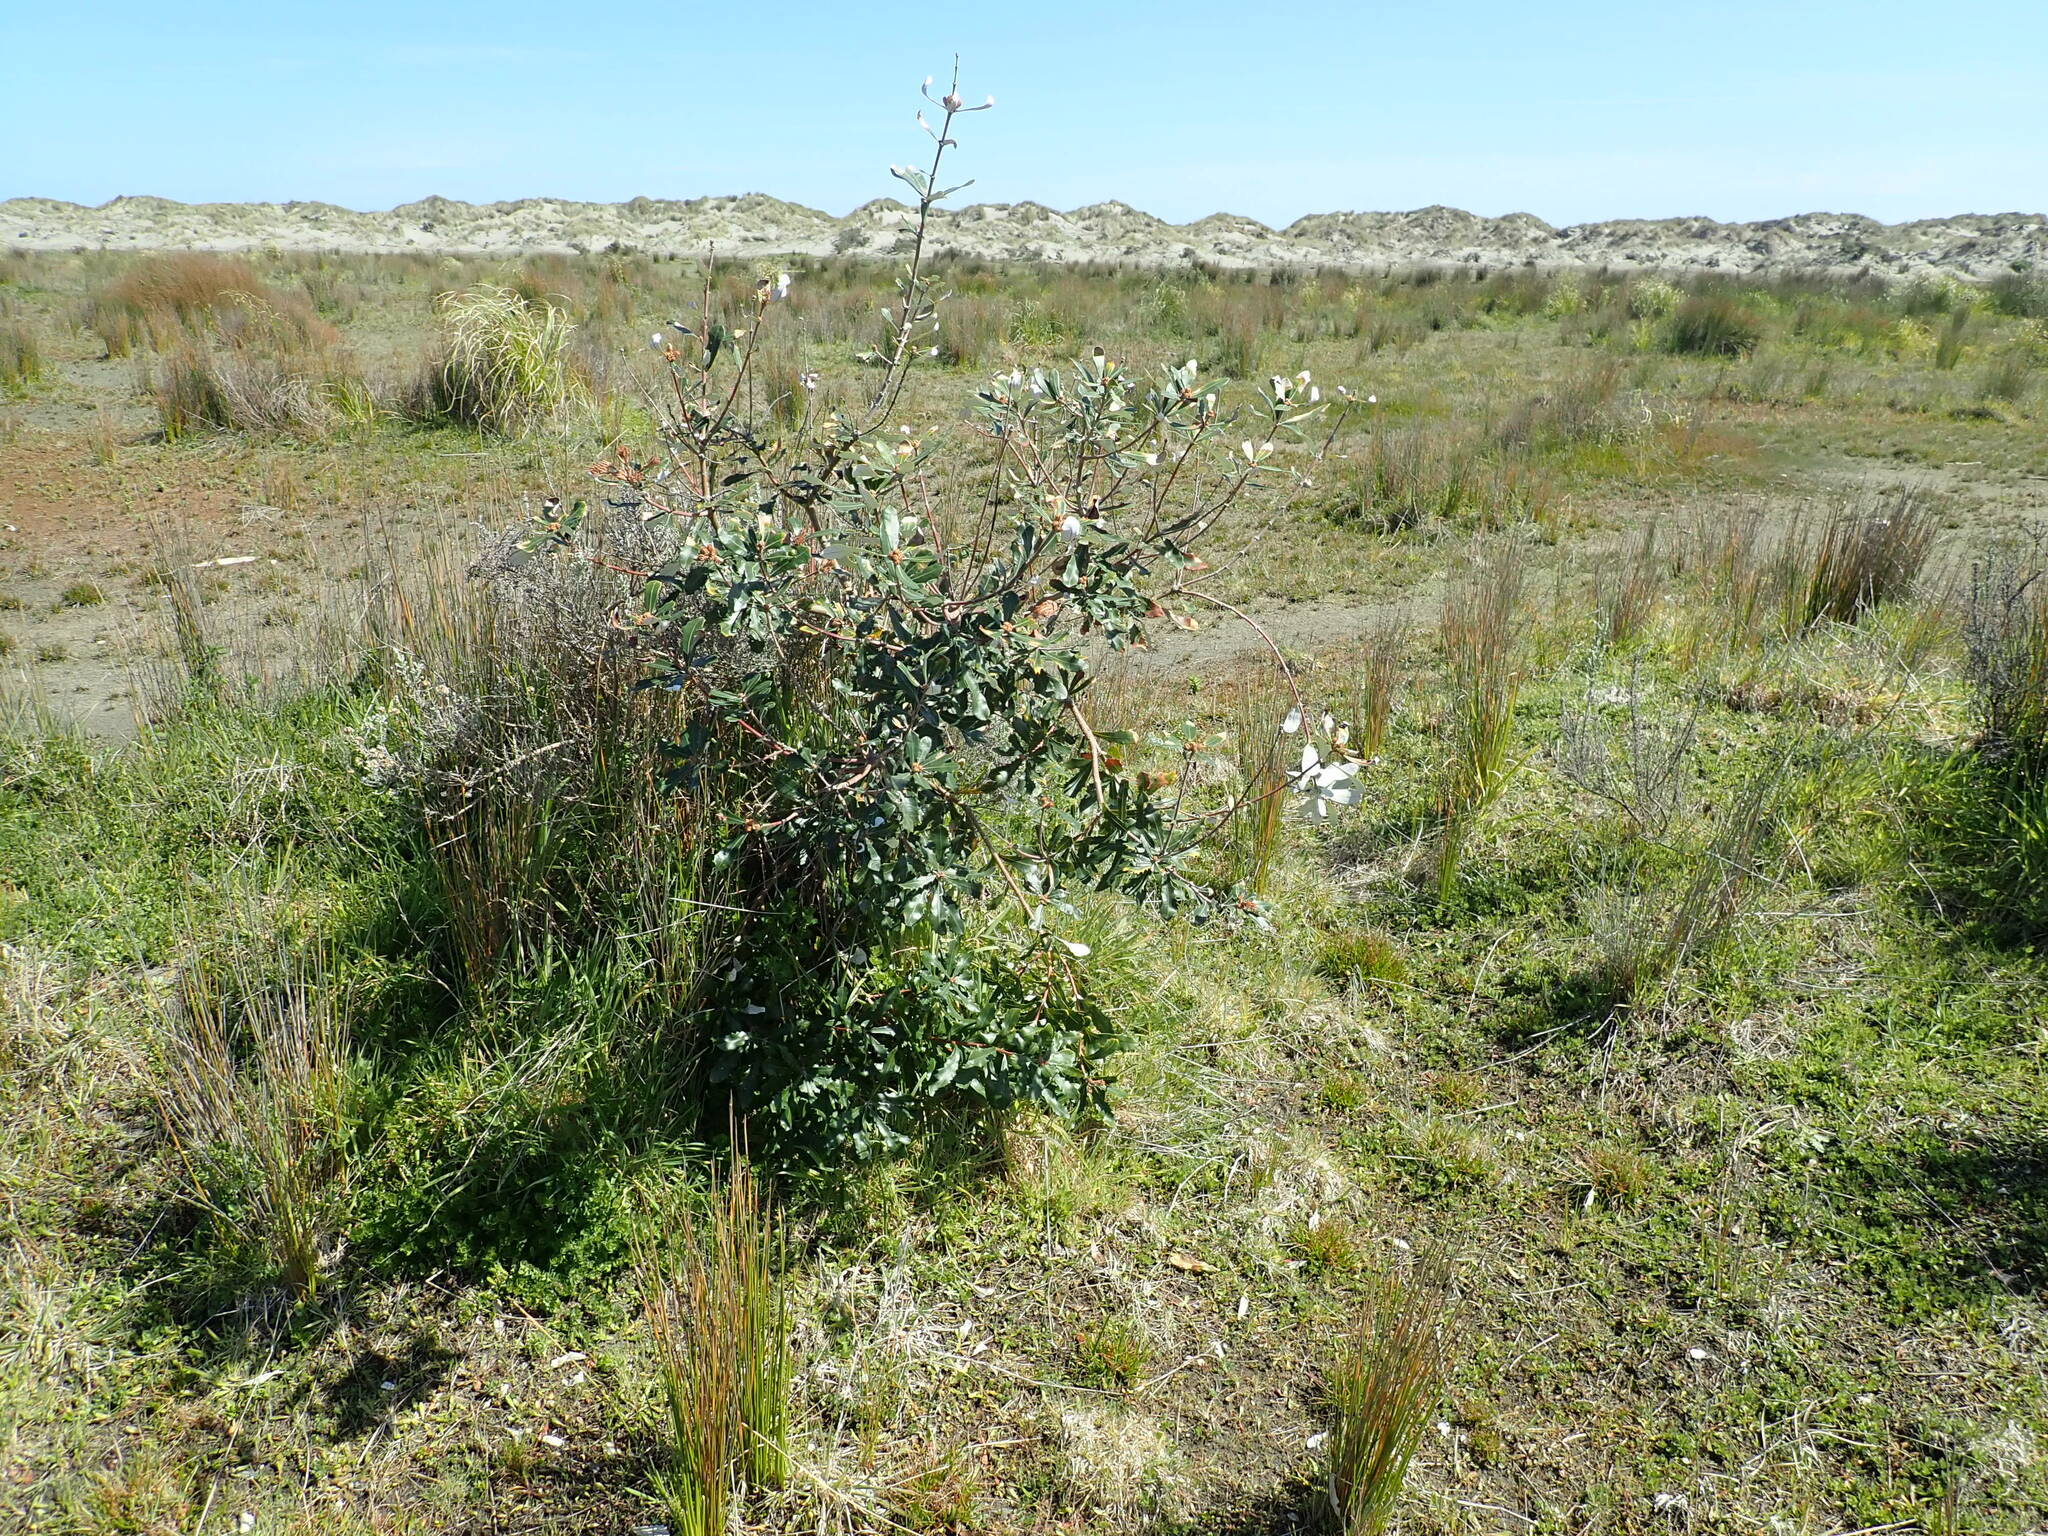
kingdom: Plantae
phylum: Tracheophyta
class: Magnoliopsida
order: Proteales
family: Proteaceae
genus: Banksia
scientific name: Banksia integrifolia
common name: White-honeysuckle
